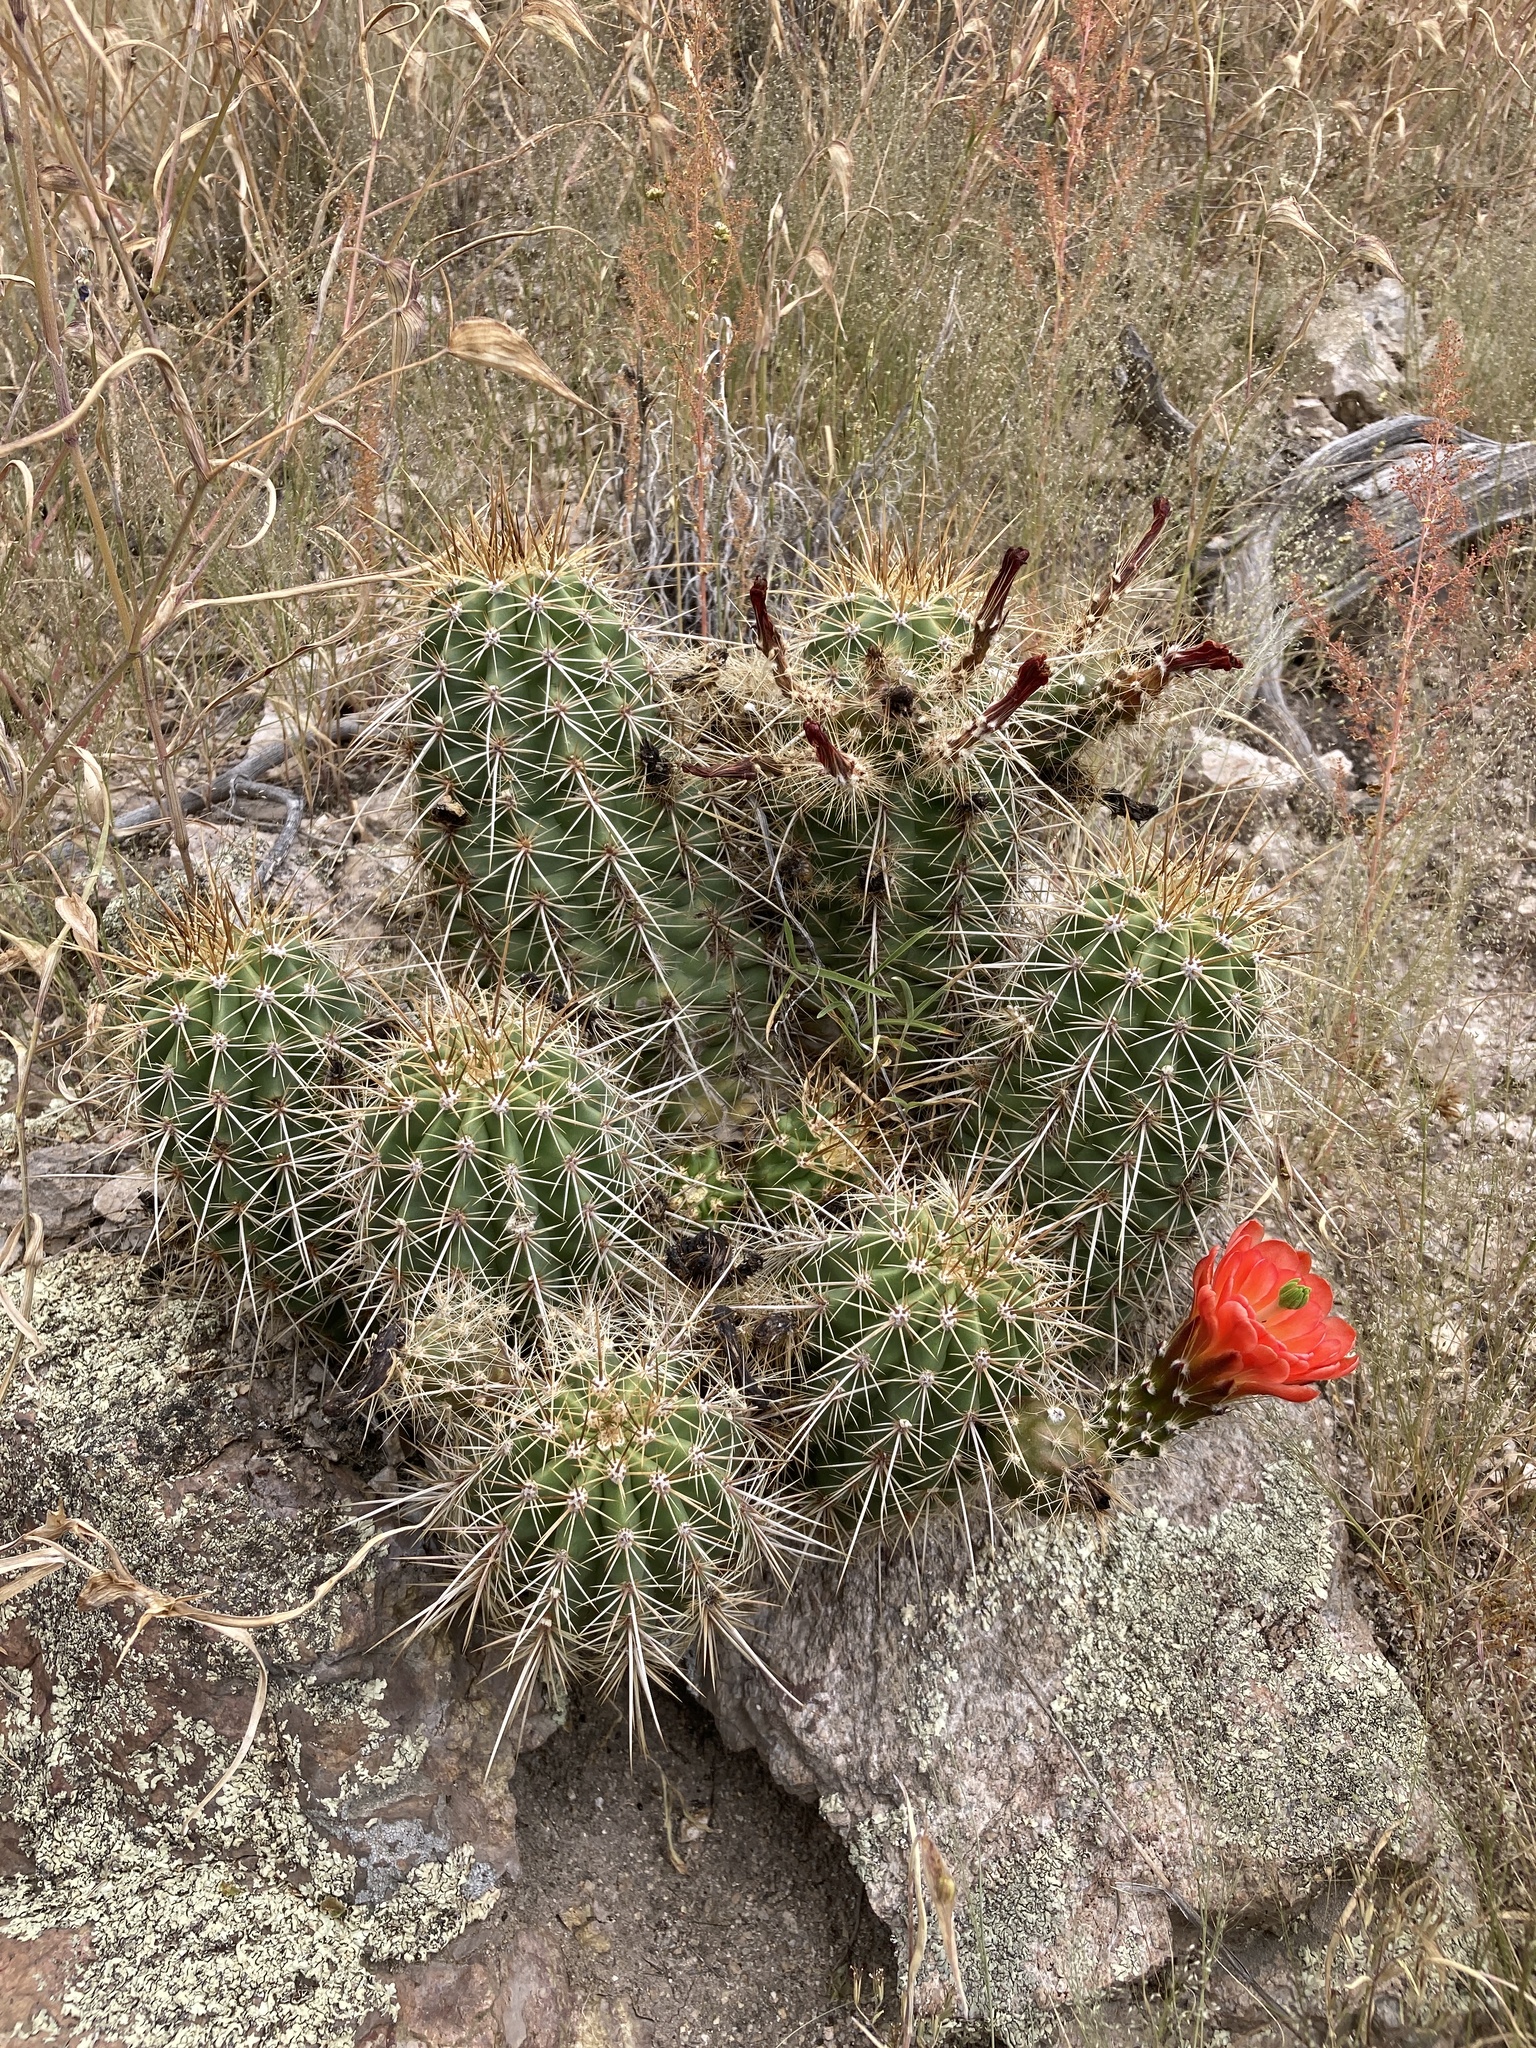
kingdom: Plantae
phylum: Tracheophyta
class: Magnoliopsida
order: Caryophyllales
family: Cactaceae
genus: Echinocereus
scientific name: Echinocereus coccineus
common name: Scarlet hedgehog cactus
